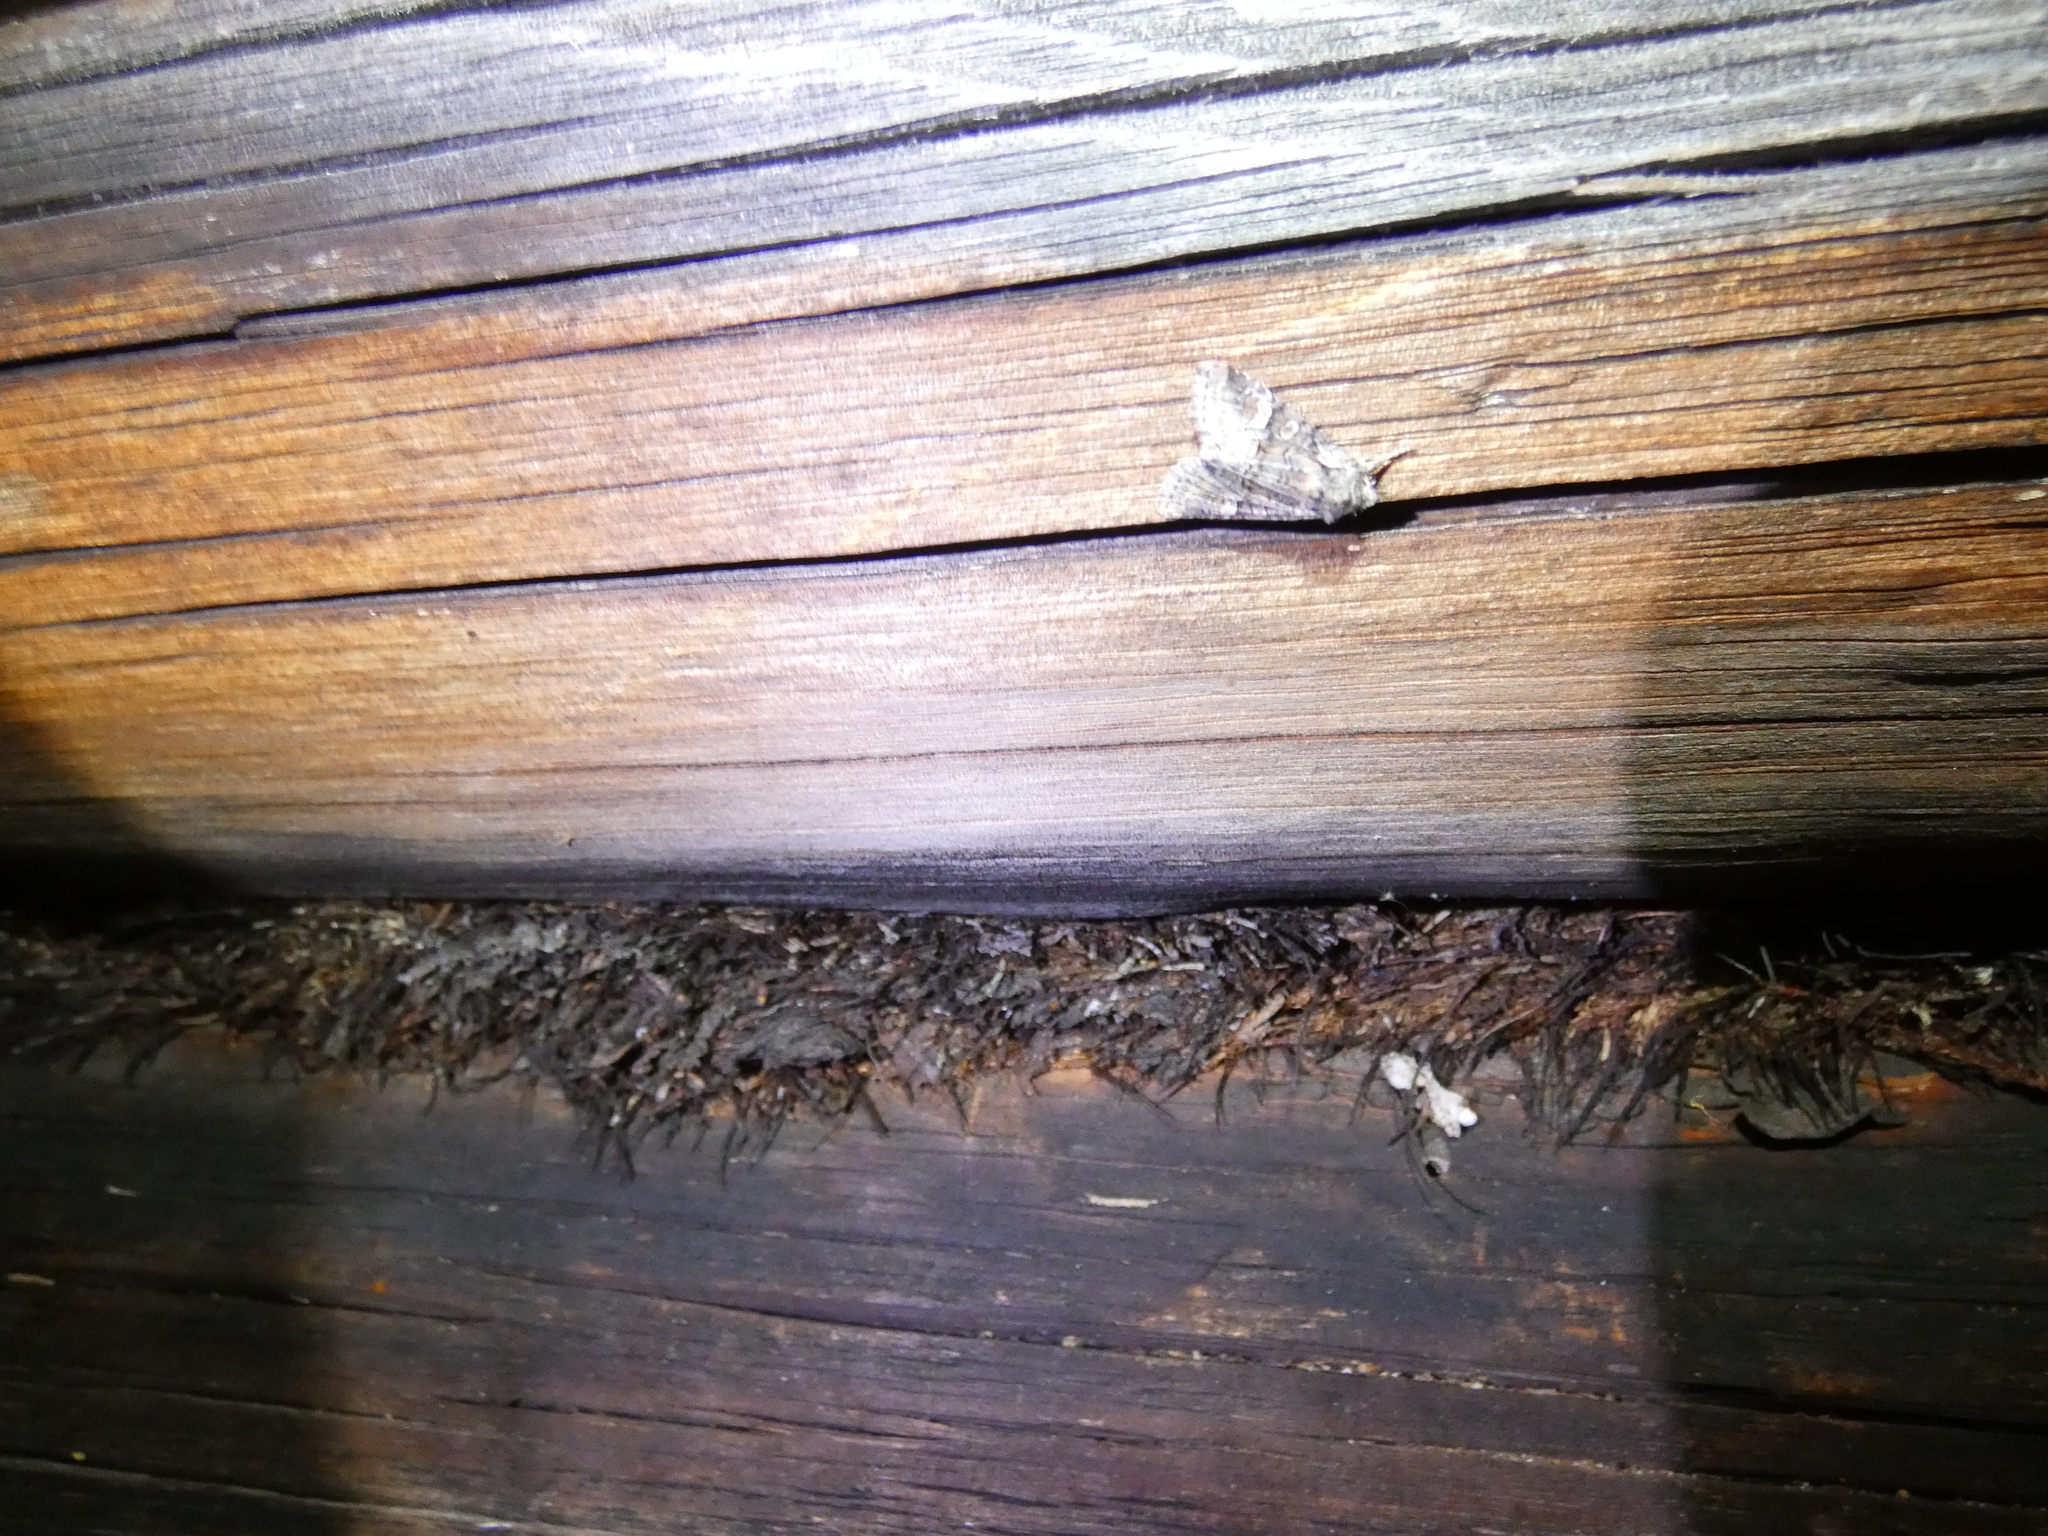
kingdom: Animalia
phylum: Arthropoda
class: Insecta
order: Lepidoptera
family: Noctuidae
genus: Brachylomia
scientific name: Brachylomia viminalis
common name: Minor shoulder-knot
